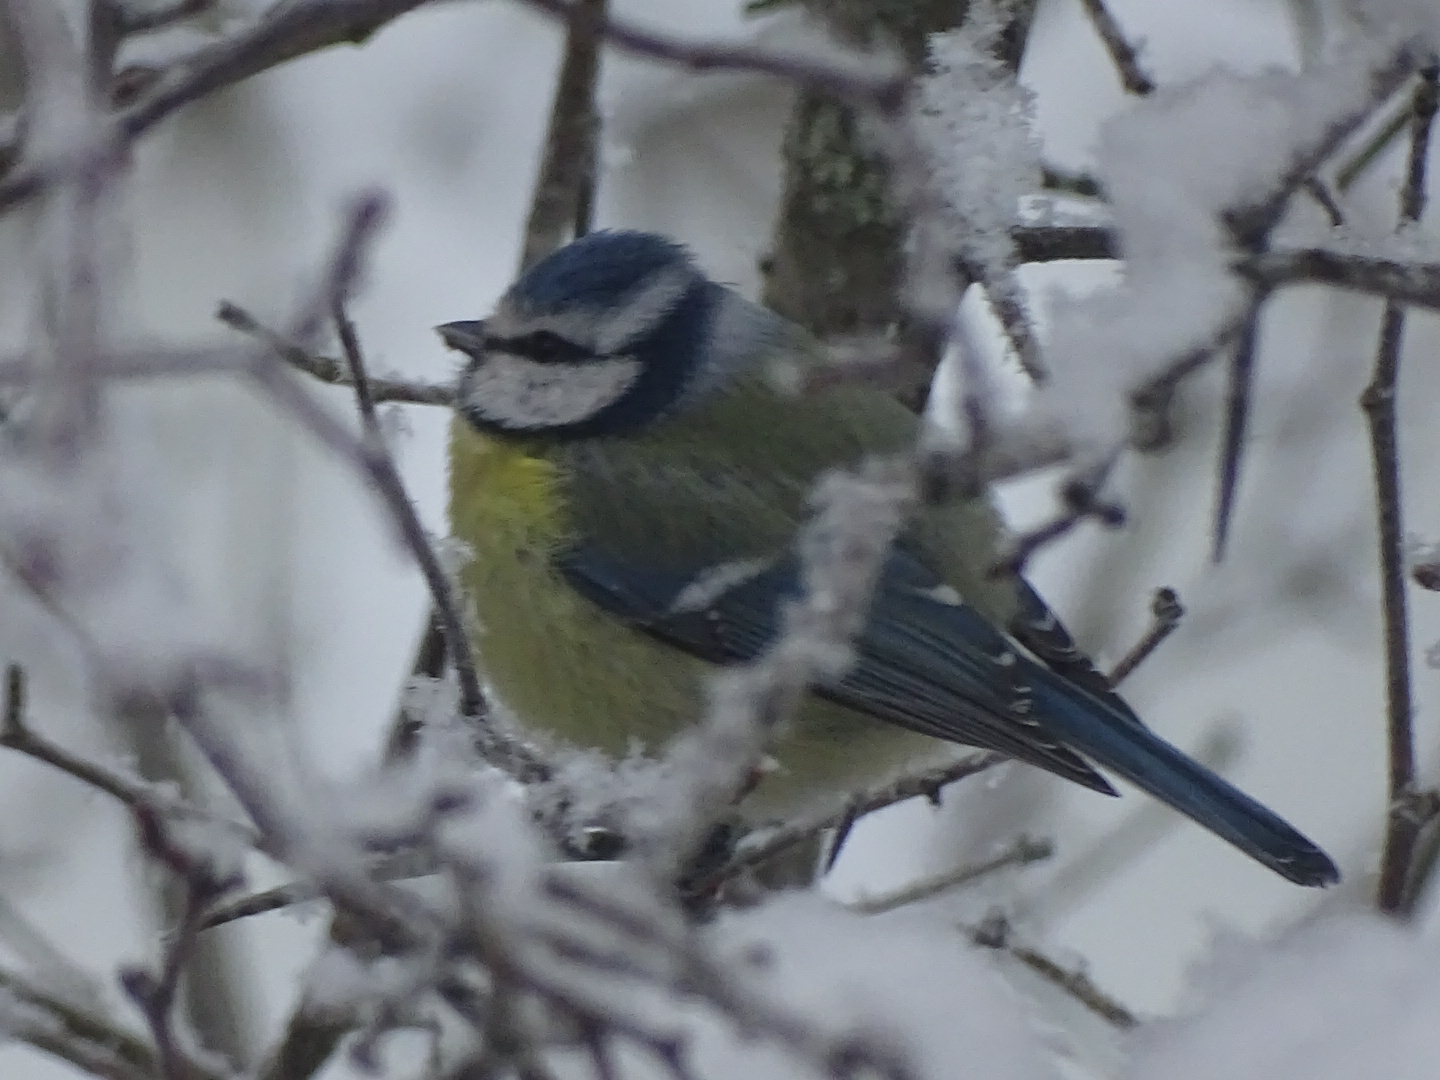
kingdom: Animalia
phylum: Chordata
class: Aves
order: Passeriformes
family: Paridae
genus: Cyanistes
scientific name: Cyanistes caeruleus
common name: Eurasian blue tit
